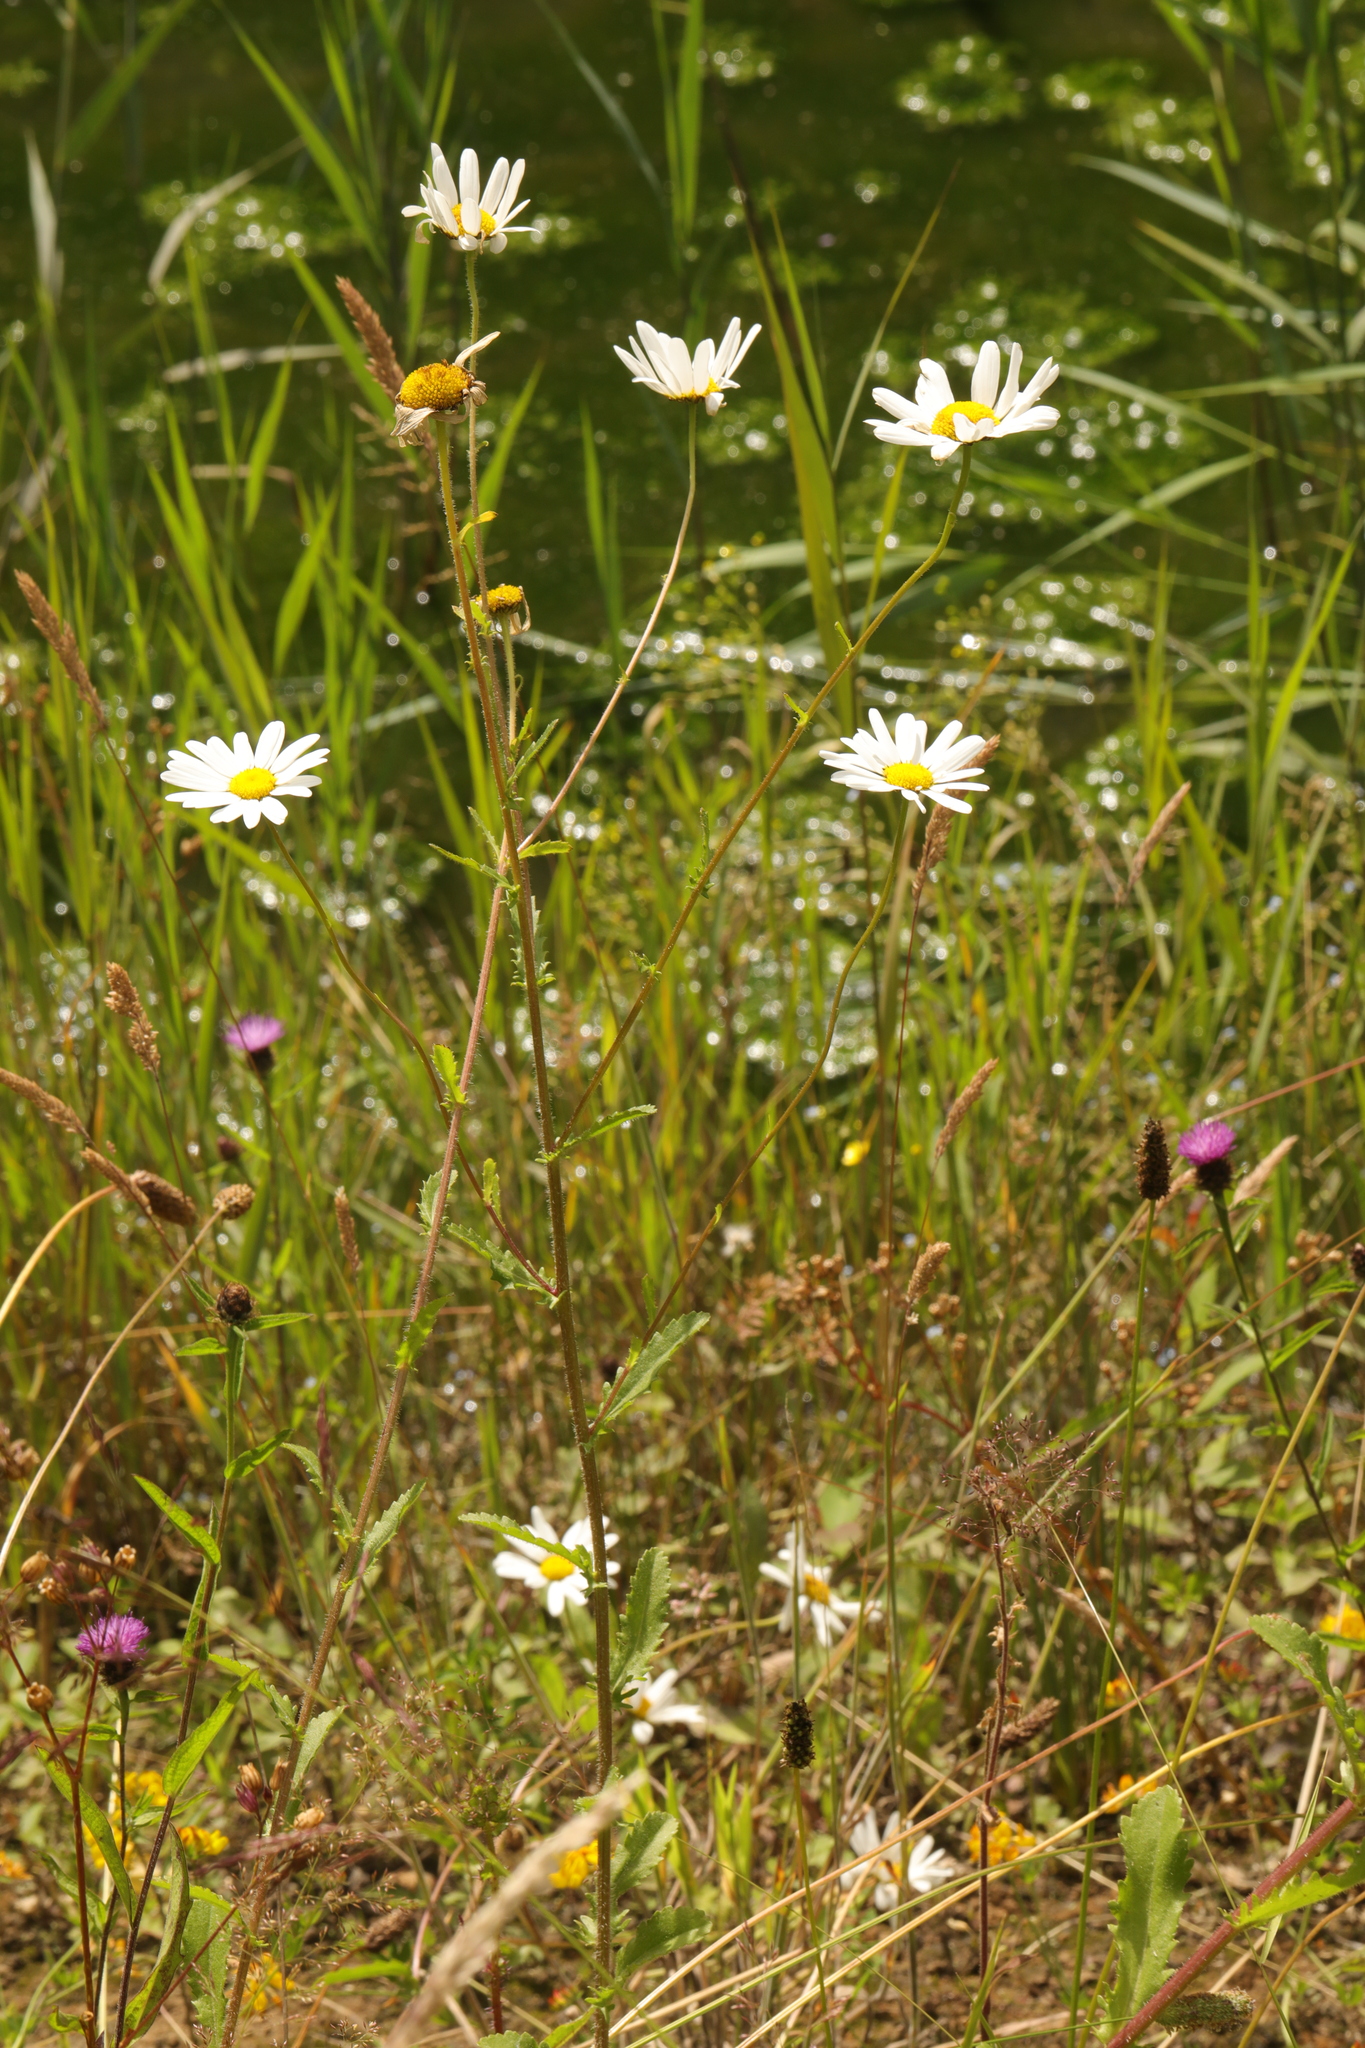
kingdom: Plantae
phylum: Tracheophyta
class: Magnoliopsida
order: Asterales
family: Asteraceae
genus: Leucanthemum
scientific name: Leucanthemum vulgare
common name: Oxeye daisy
